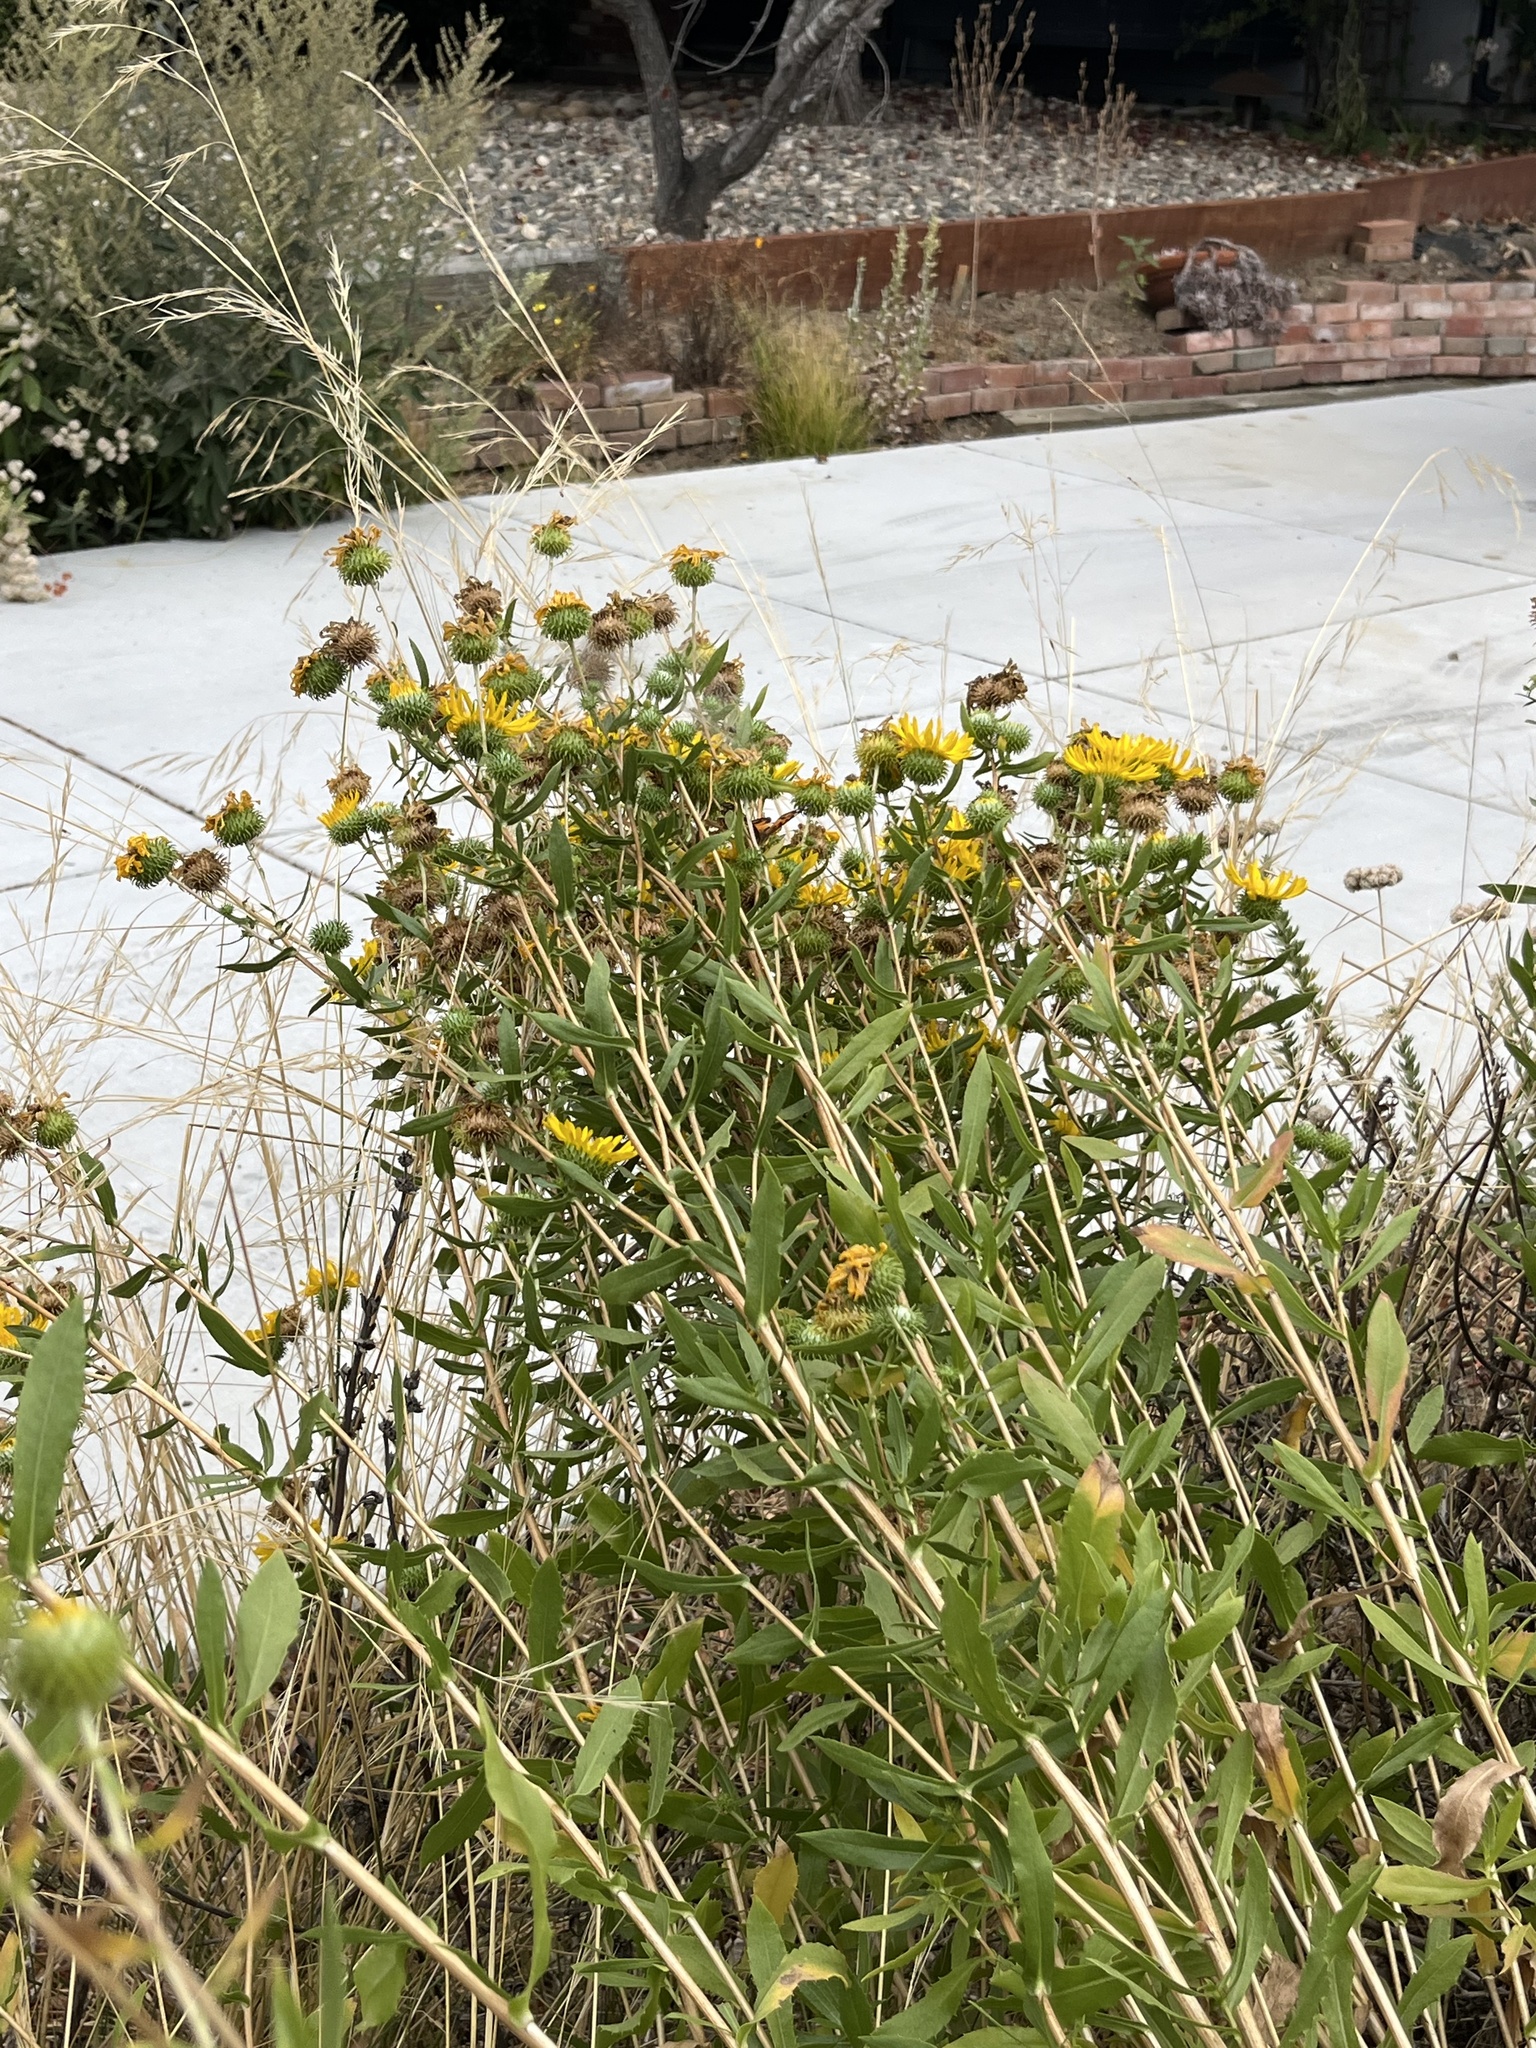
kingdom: Animalia
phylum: Arthropoda
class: Insecta
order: Lepidoptera
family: Nymphalidae
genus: Vanessa
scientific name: Vanessa virginiensis
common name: American lady
